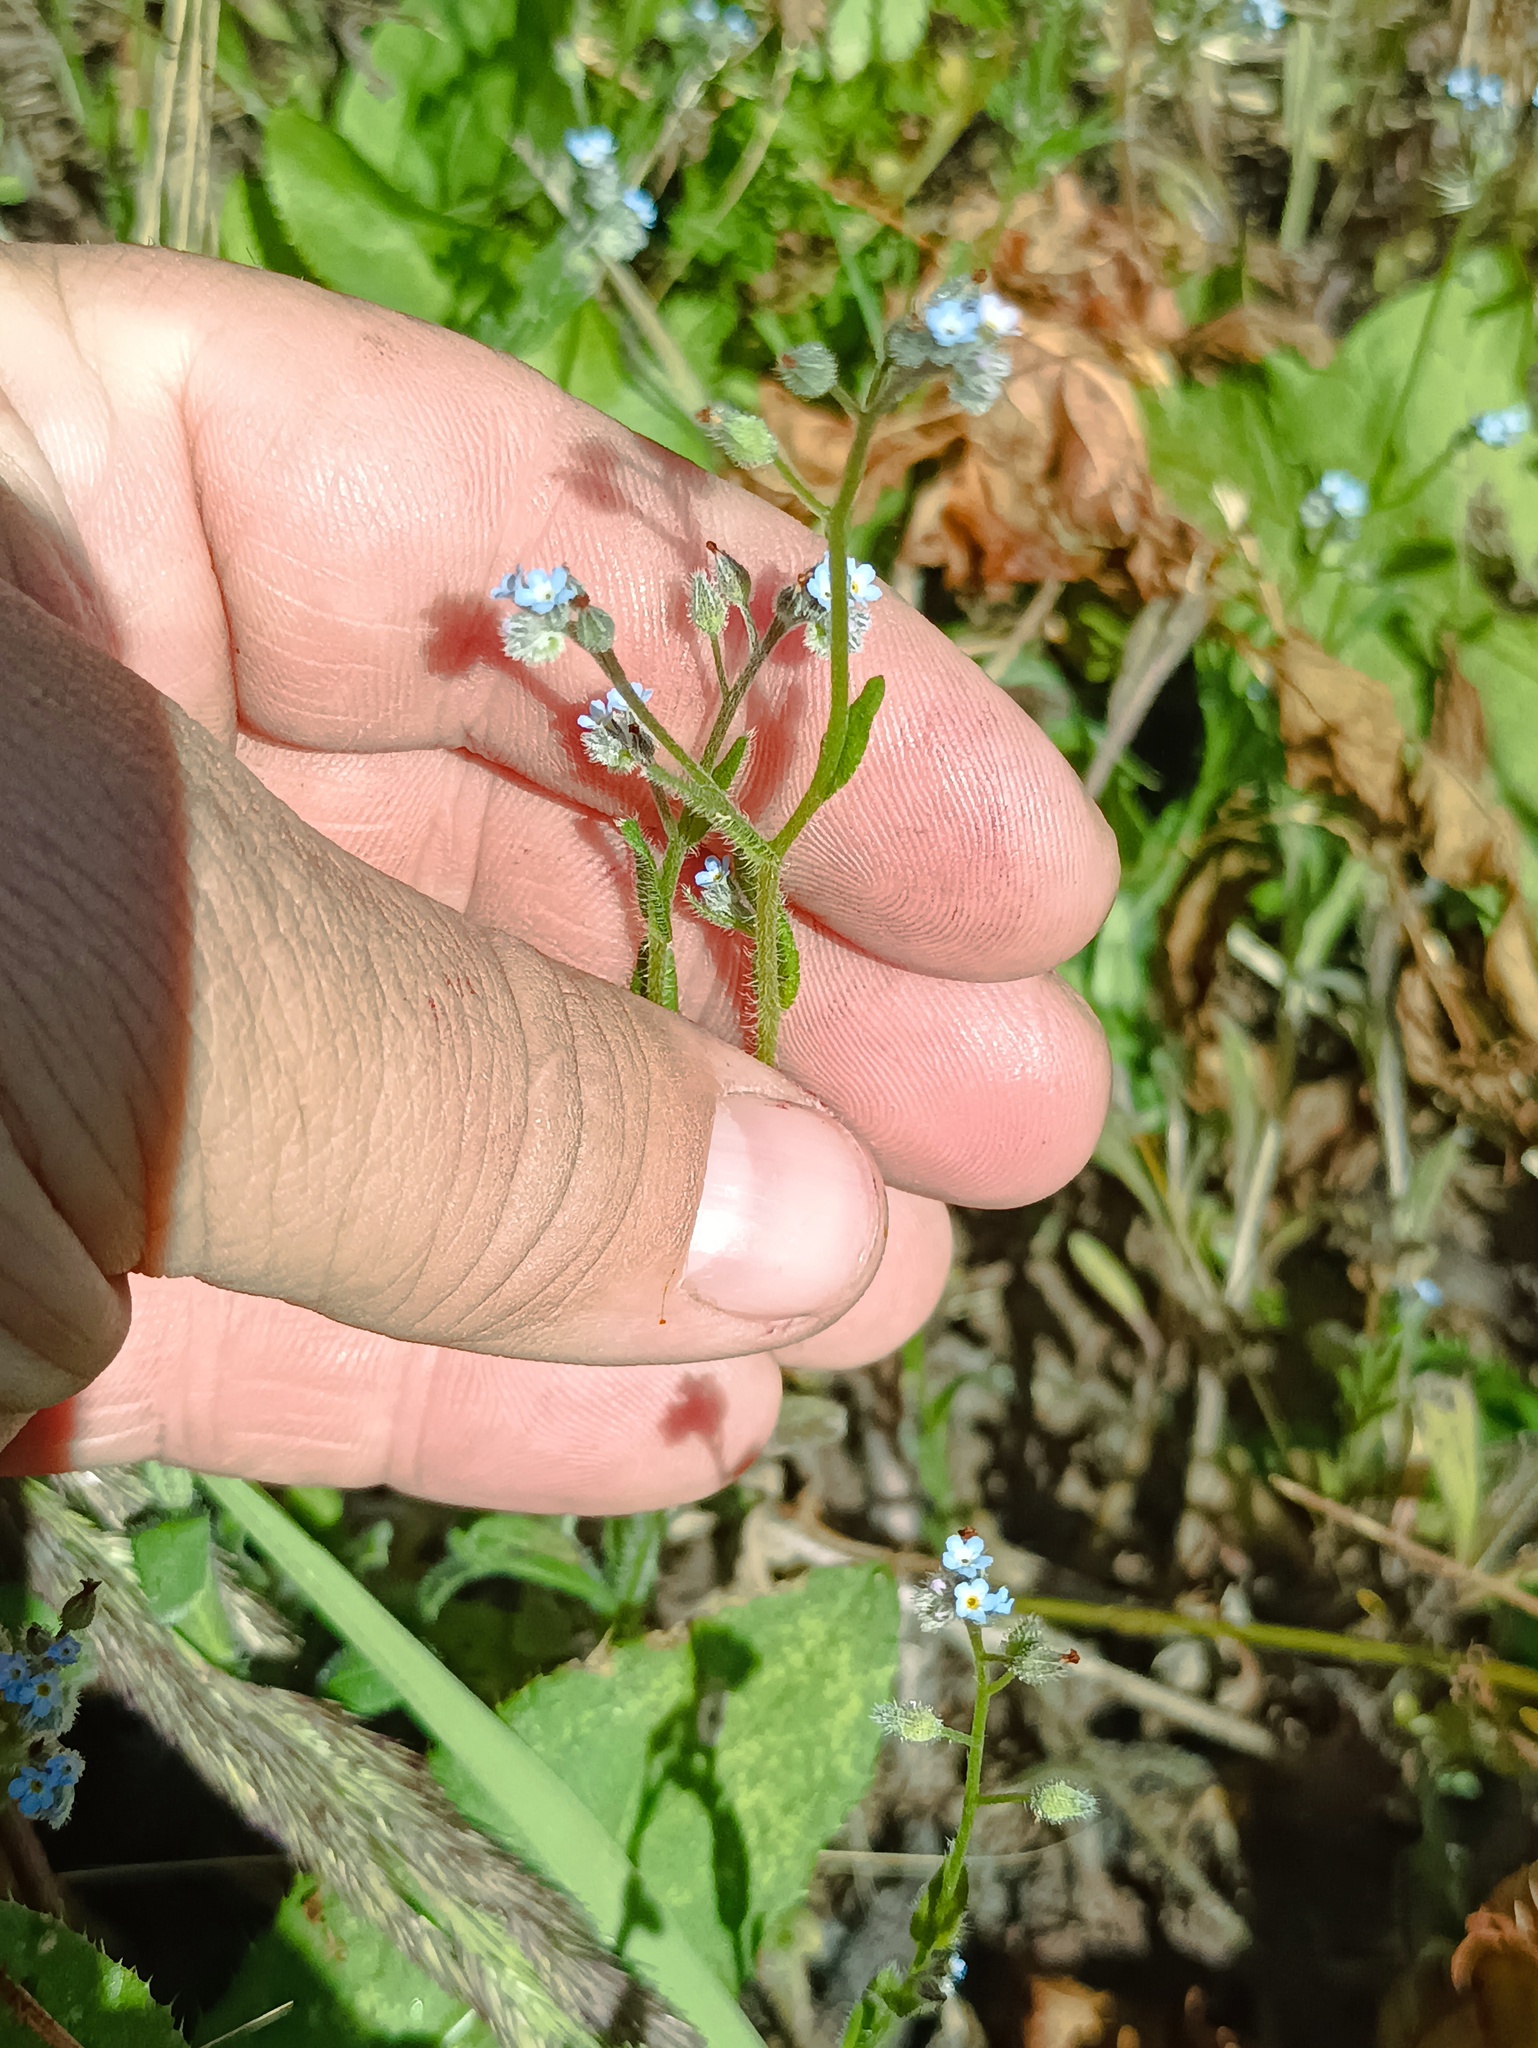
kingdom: Plantae
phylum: Tracheophyta
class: Magnoliopsida
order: Boraginales
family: Boraginaceae
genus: Myosotis
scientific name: Myosotis arvensis
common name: Field forget-me-not
